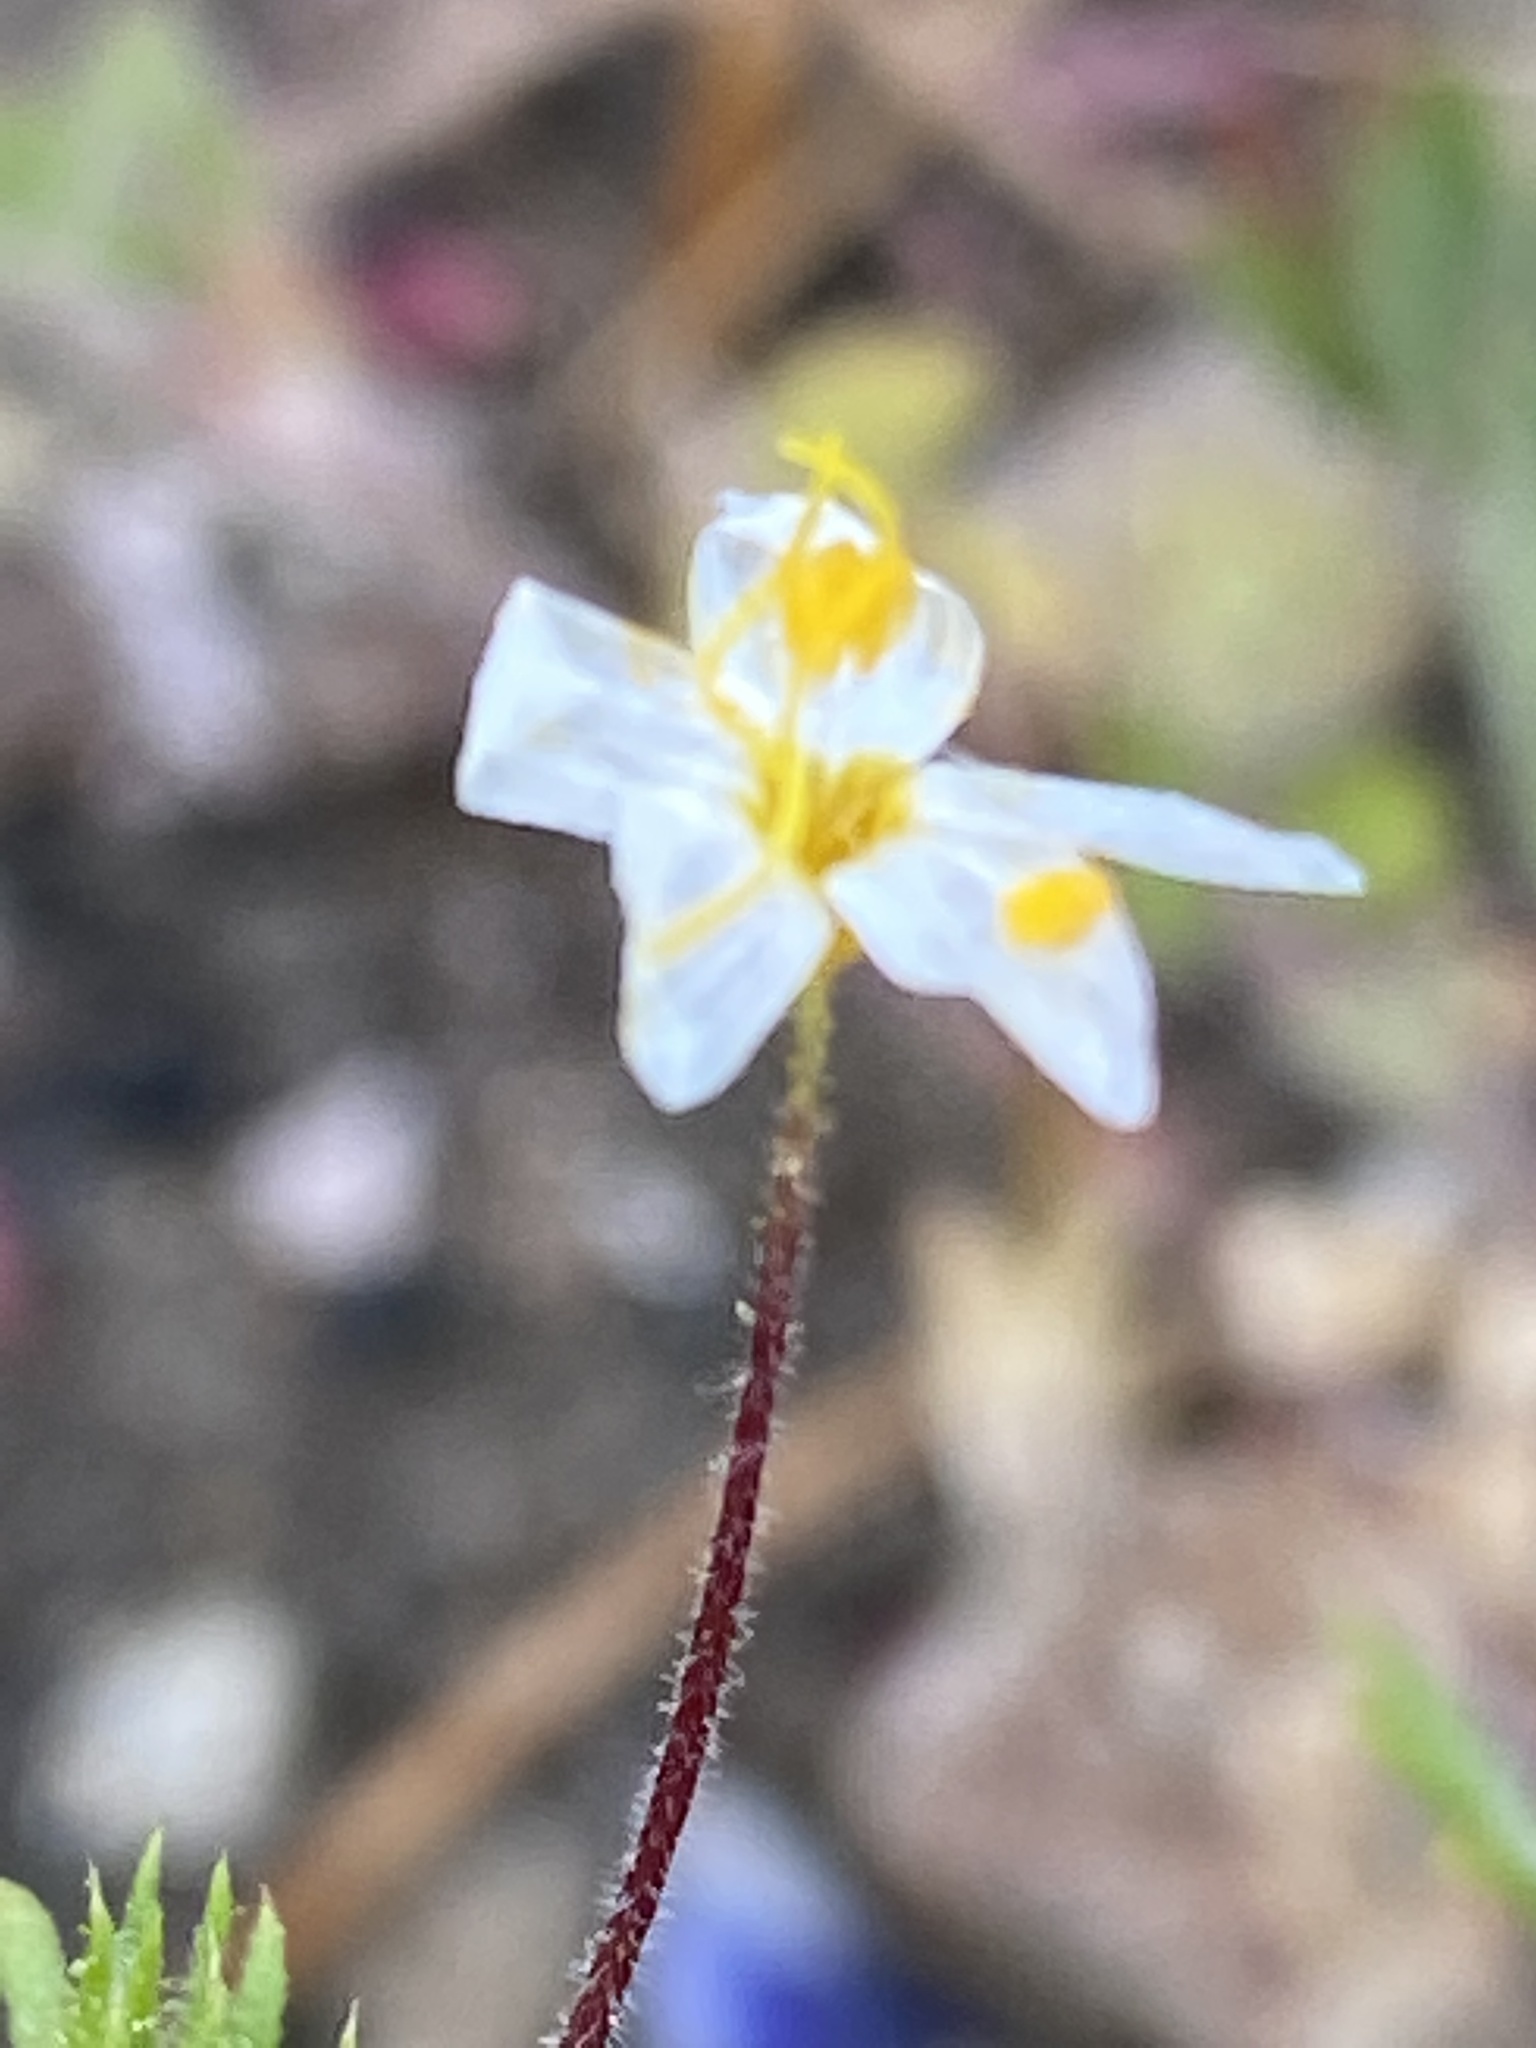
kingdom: Plantae
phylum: Tracheophyta
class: Magnoliopsida
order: Ericales
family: Polemoniaceae
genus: Leptosiphon
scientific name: Leptosiphon parviflorus
